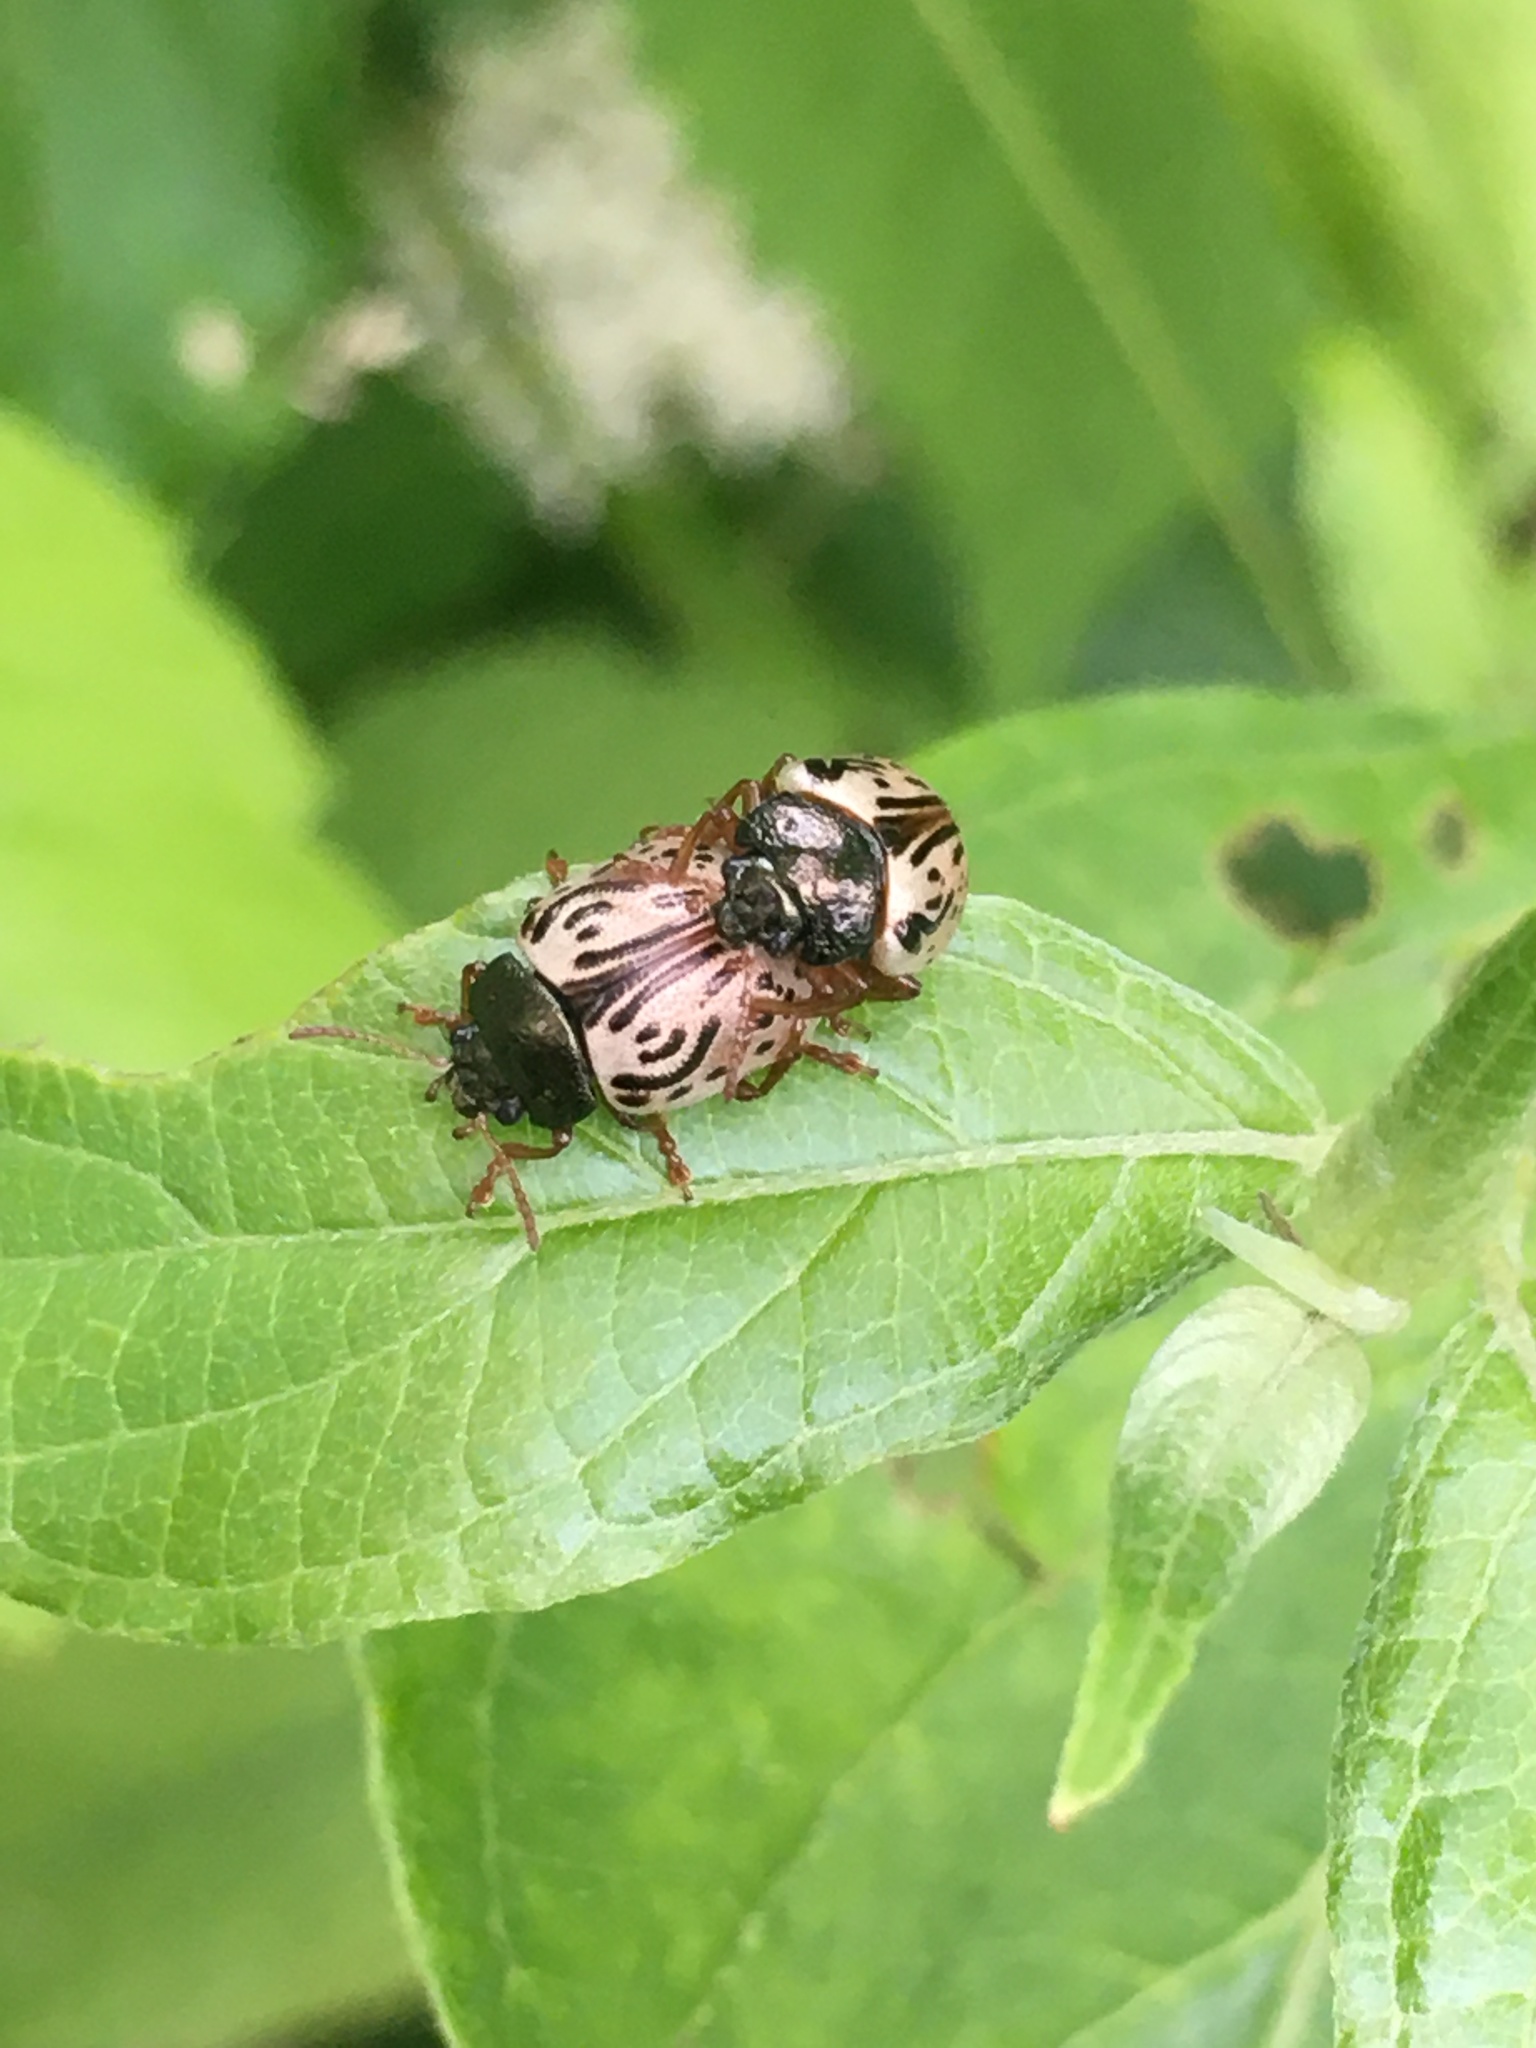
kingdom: Animalia
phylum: Arthropoda
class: Insecta
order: Coleoptera
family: Chrysomelidae
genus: Calligrapha
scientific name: Calligrapha philadelphica
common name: Dogwood leaf beetle
